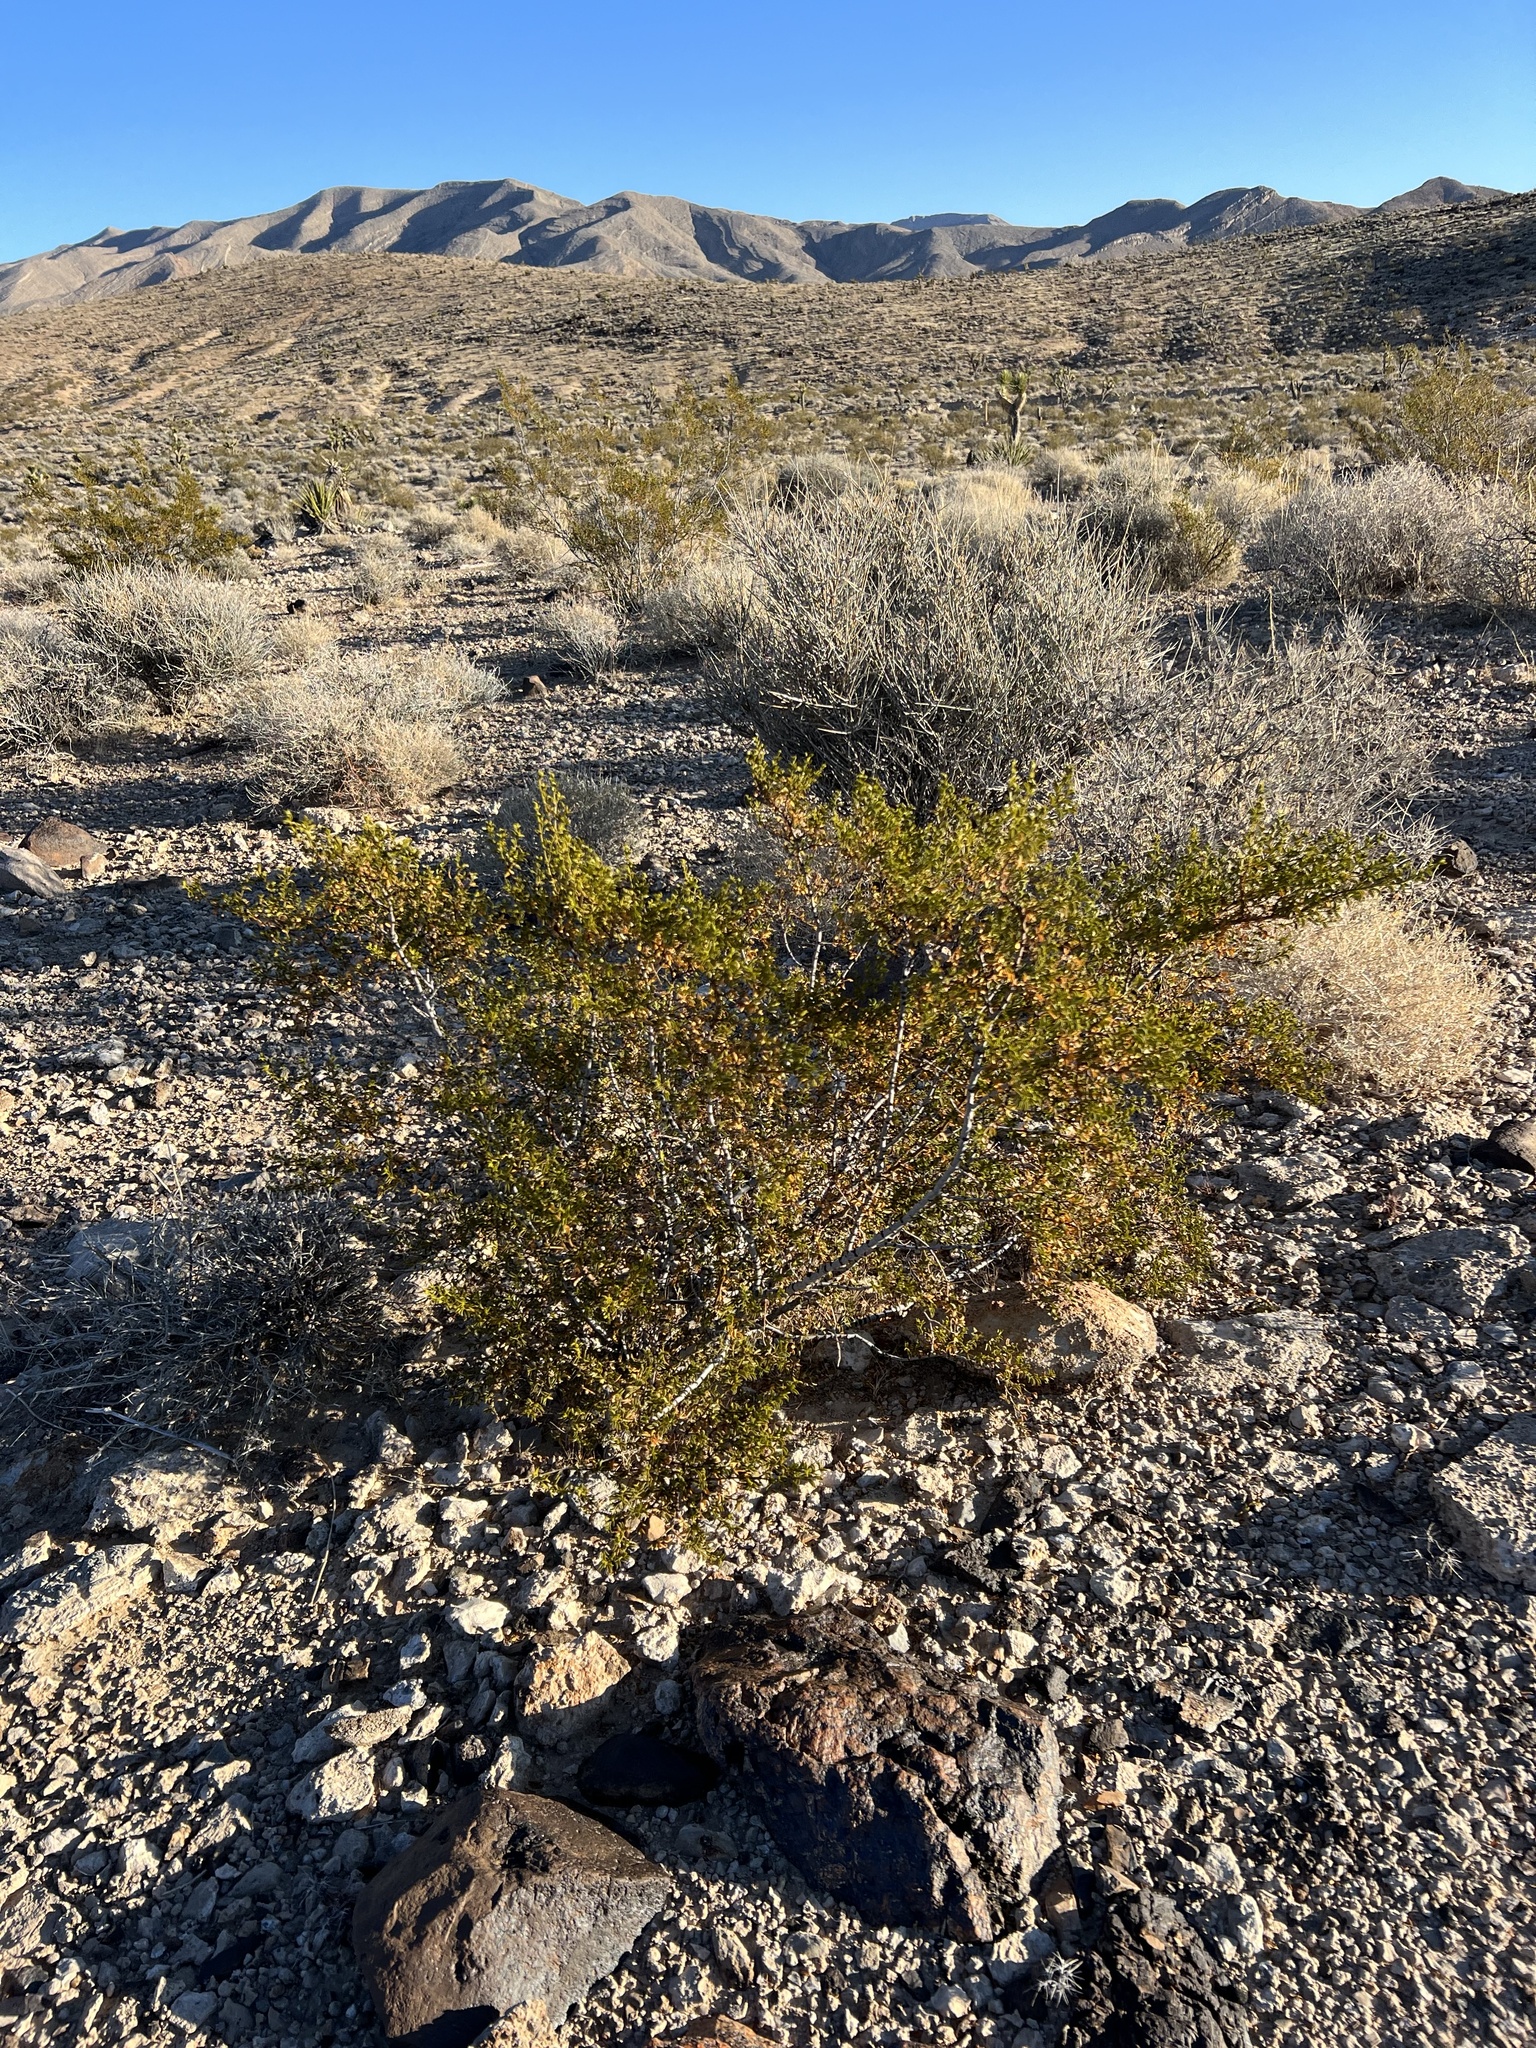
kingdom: Plantae
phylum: Tracheophyta
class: Magnoliopsida
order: Zygophyllales
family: Zygophyllaceae
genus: Larrea
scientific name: Larrea tridentata
